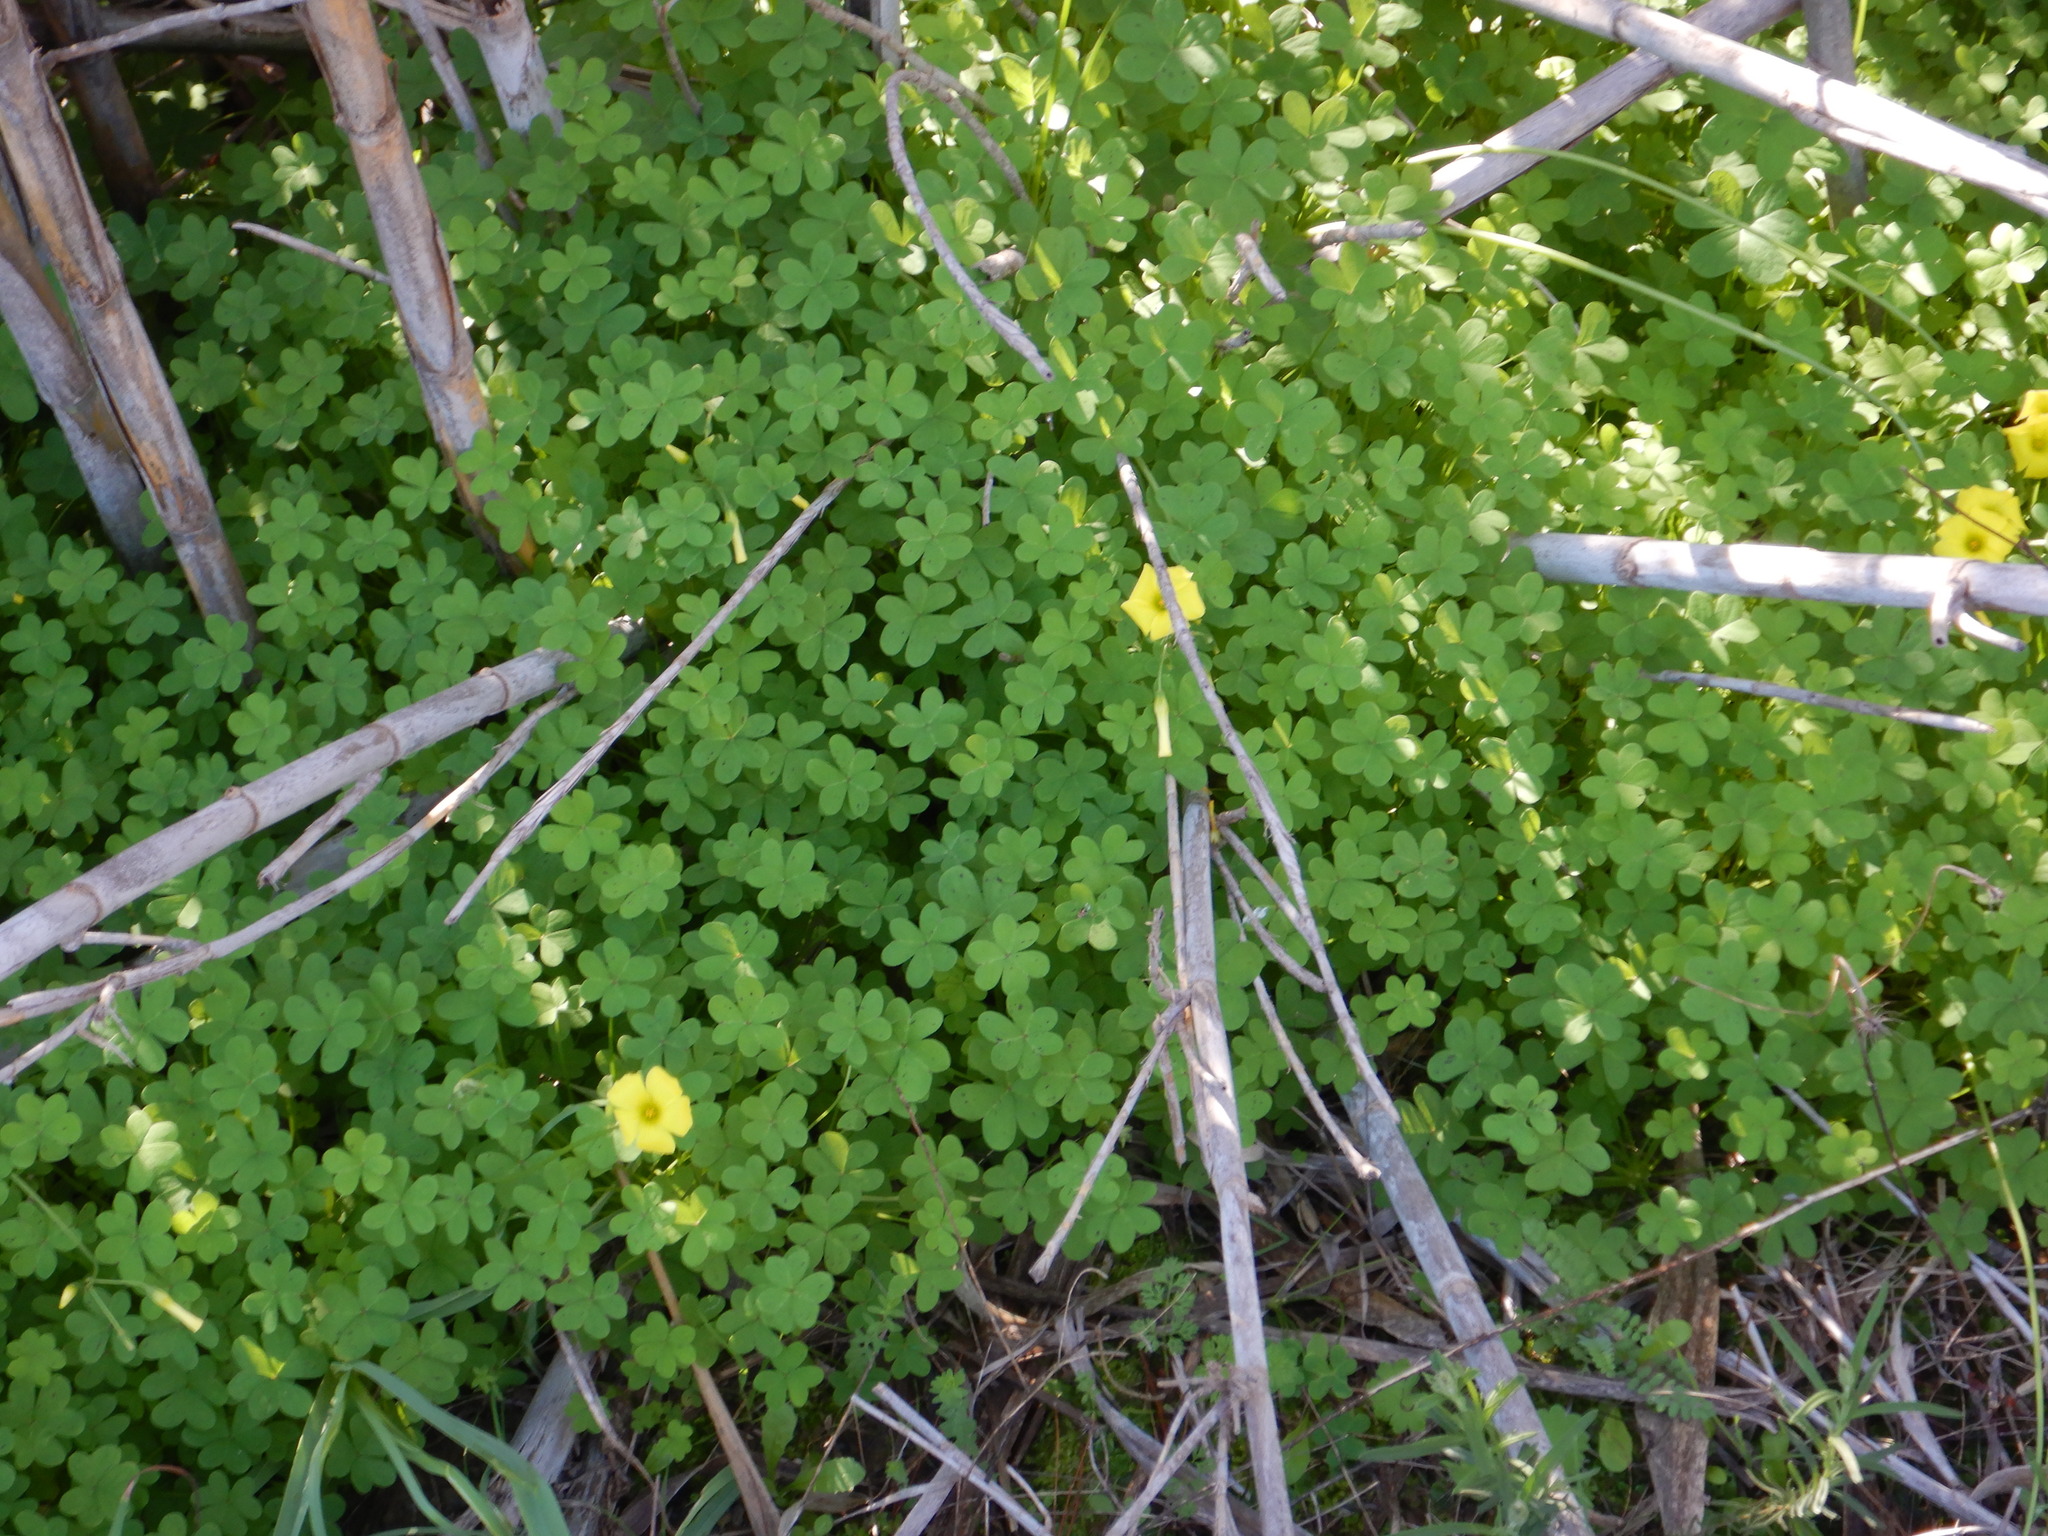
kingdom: Plantae
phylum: Tracheophyta
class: Magnoliopsida
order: Oxalidales
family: Oxalidaceae
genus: Oxalis
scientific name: Oxalis pes-caprae
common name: Bermuda-buttercup
